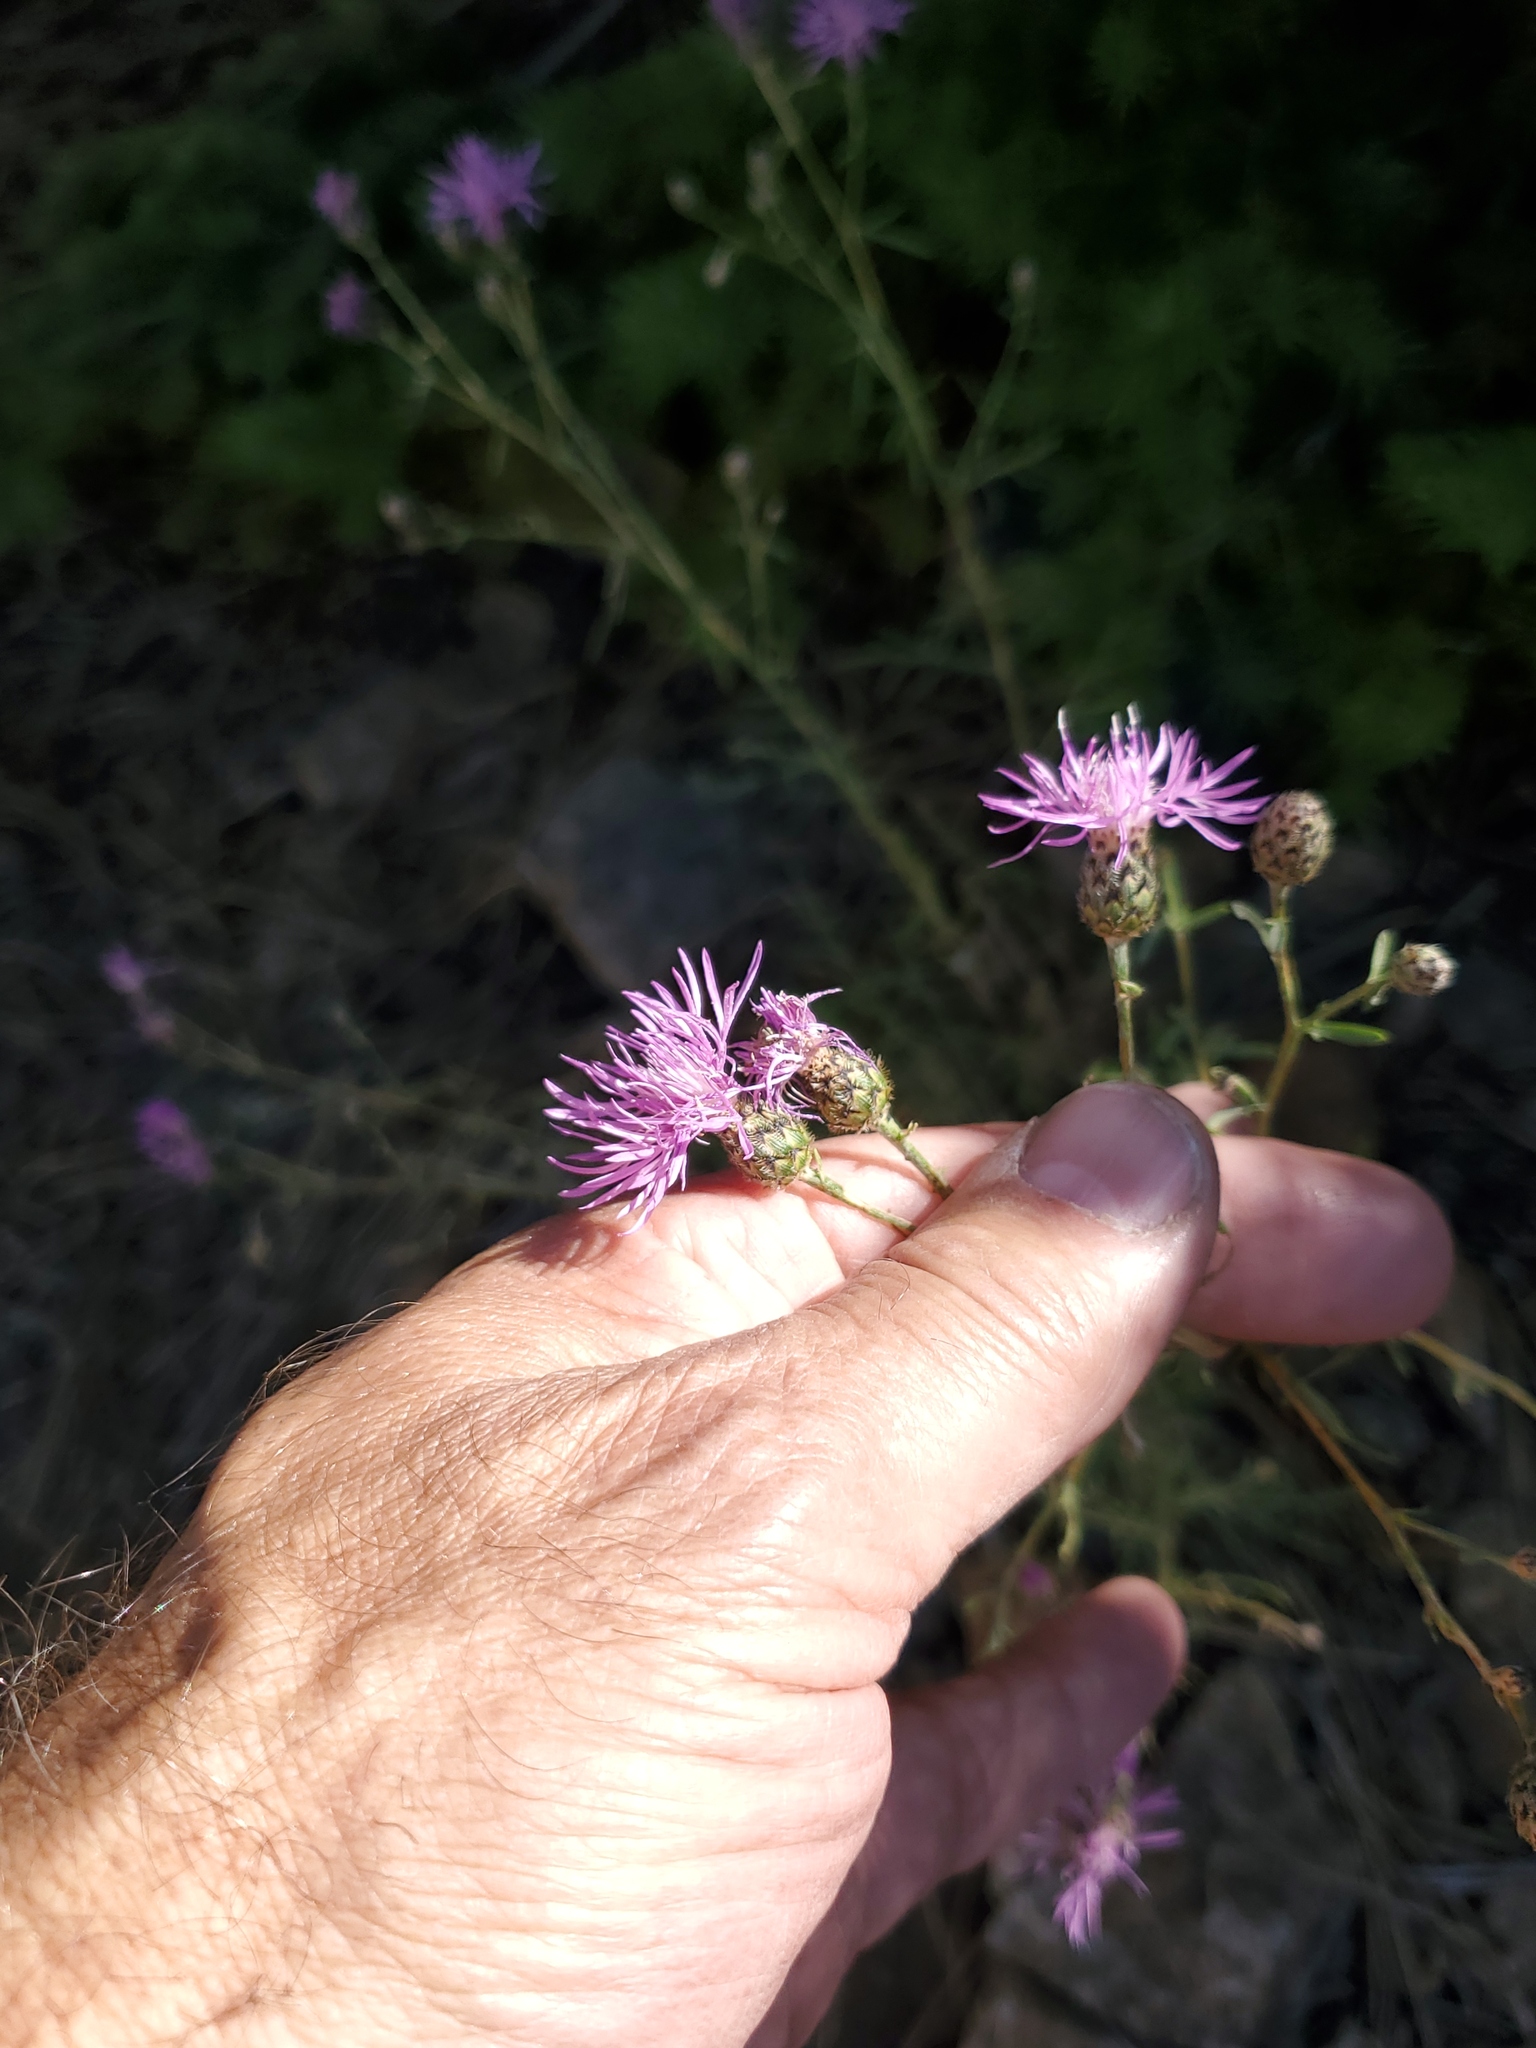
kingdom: Plantae
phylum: Tracheophyta
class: Magnoliopsida
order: Asterales
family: Asteraceae
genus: Centaurea
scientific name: Centaurea stoebe
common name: Spotted knapweed
